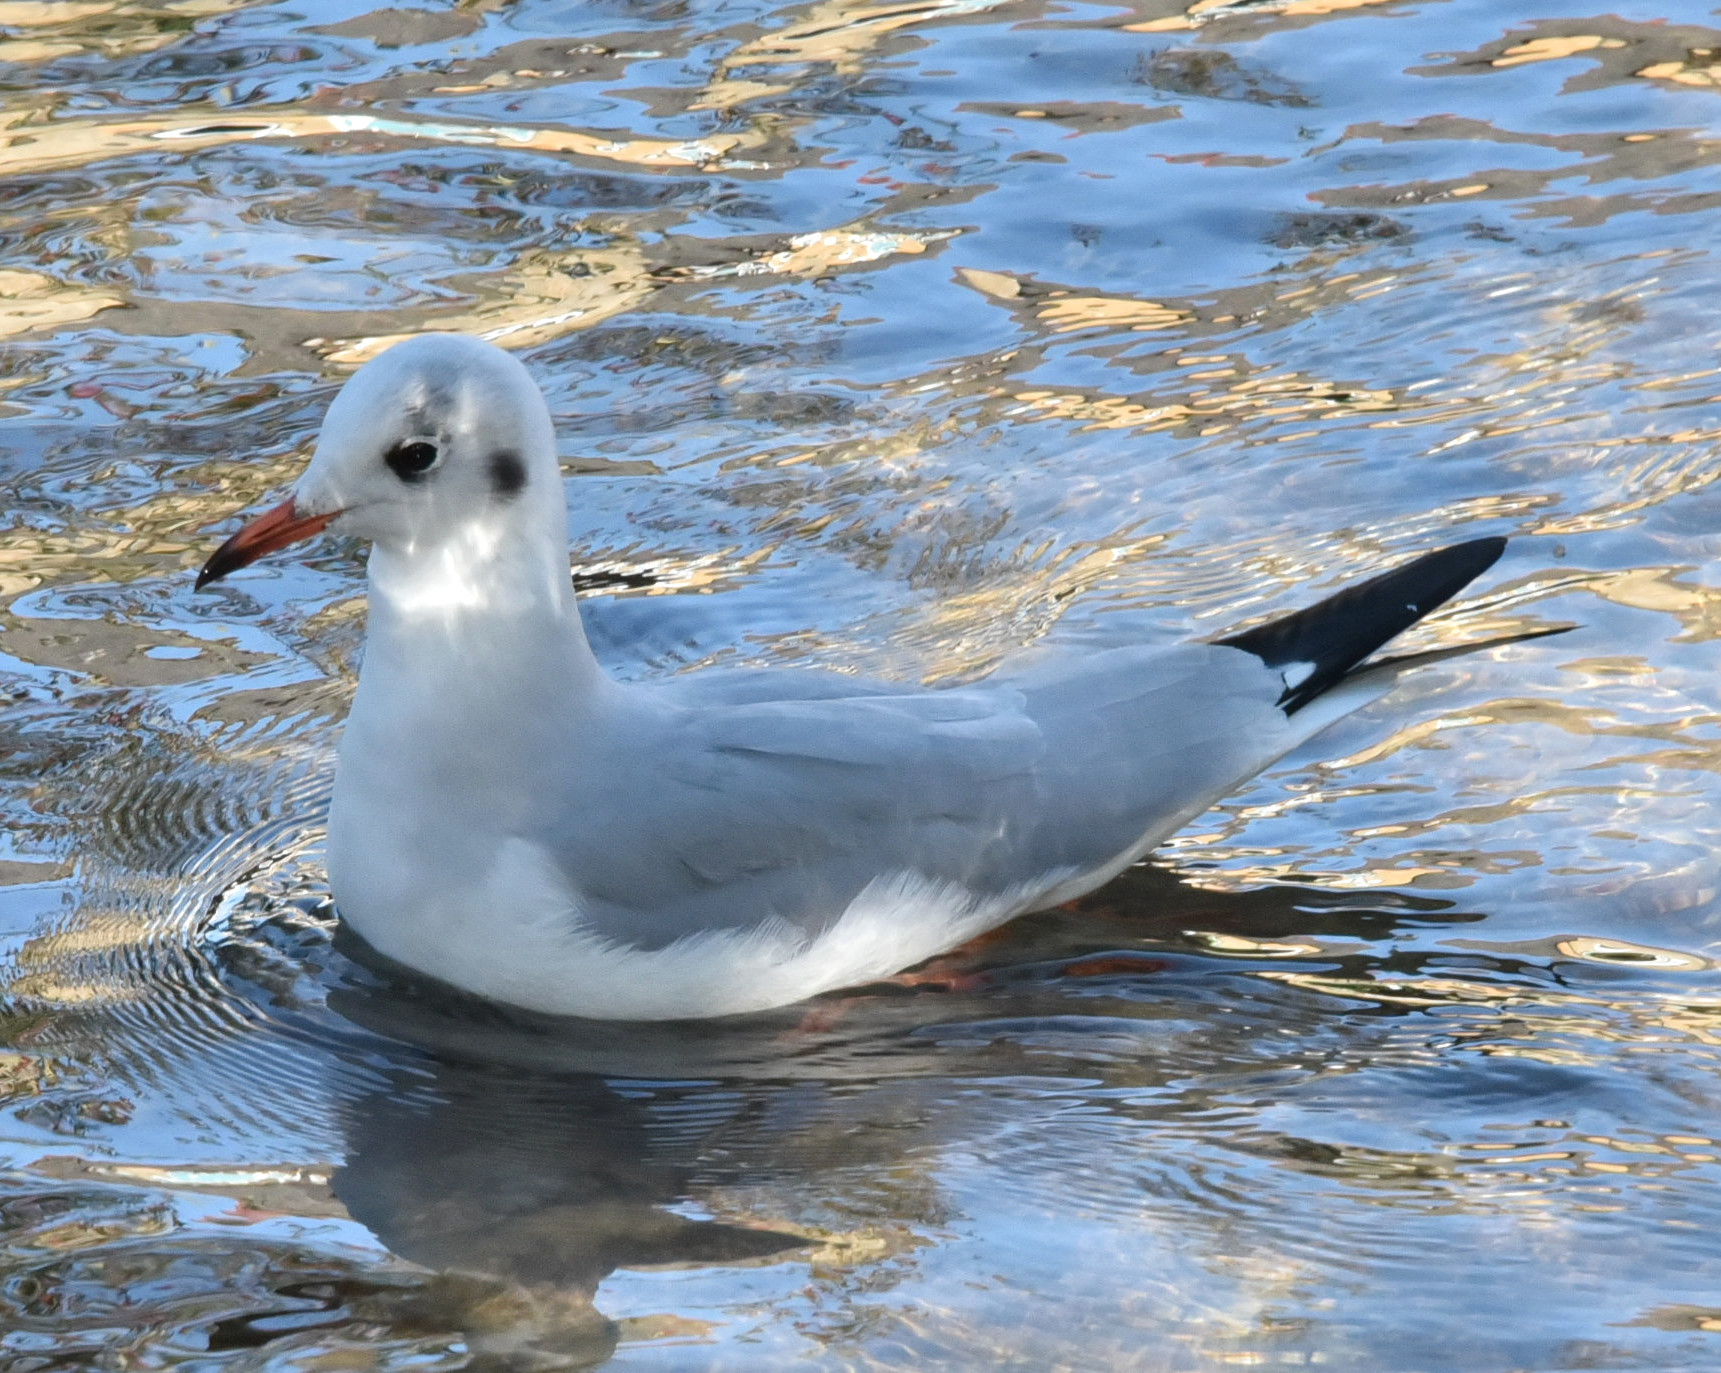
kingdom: Animalia
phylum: Chordata
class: Aves
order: Charadriiformes
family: Laridae
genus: Chroicocephalus
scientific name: Chroicocephalus ridibundus
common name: Black-headed gull
